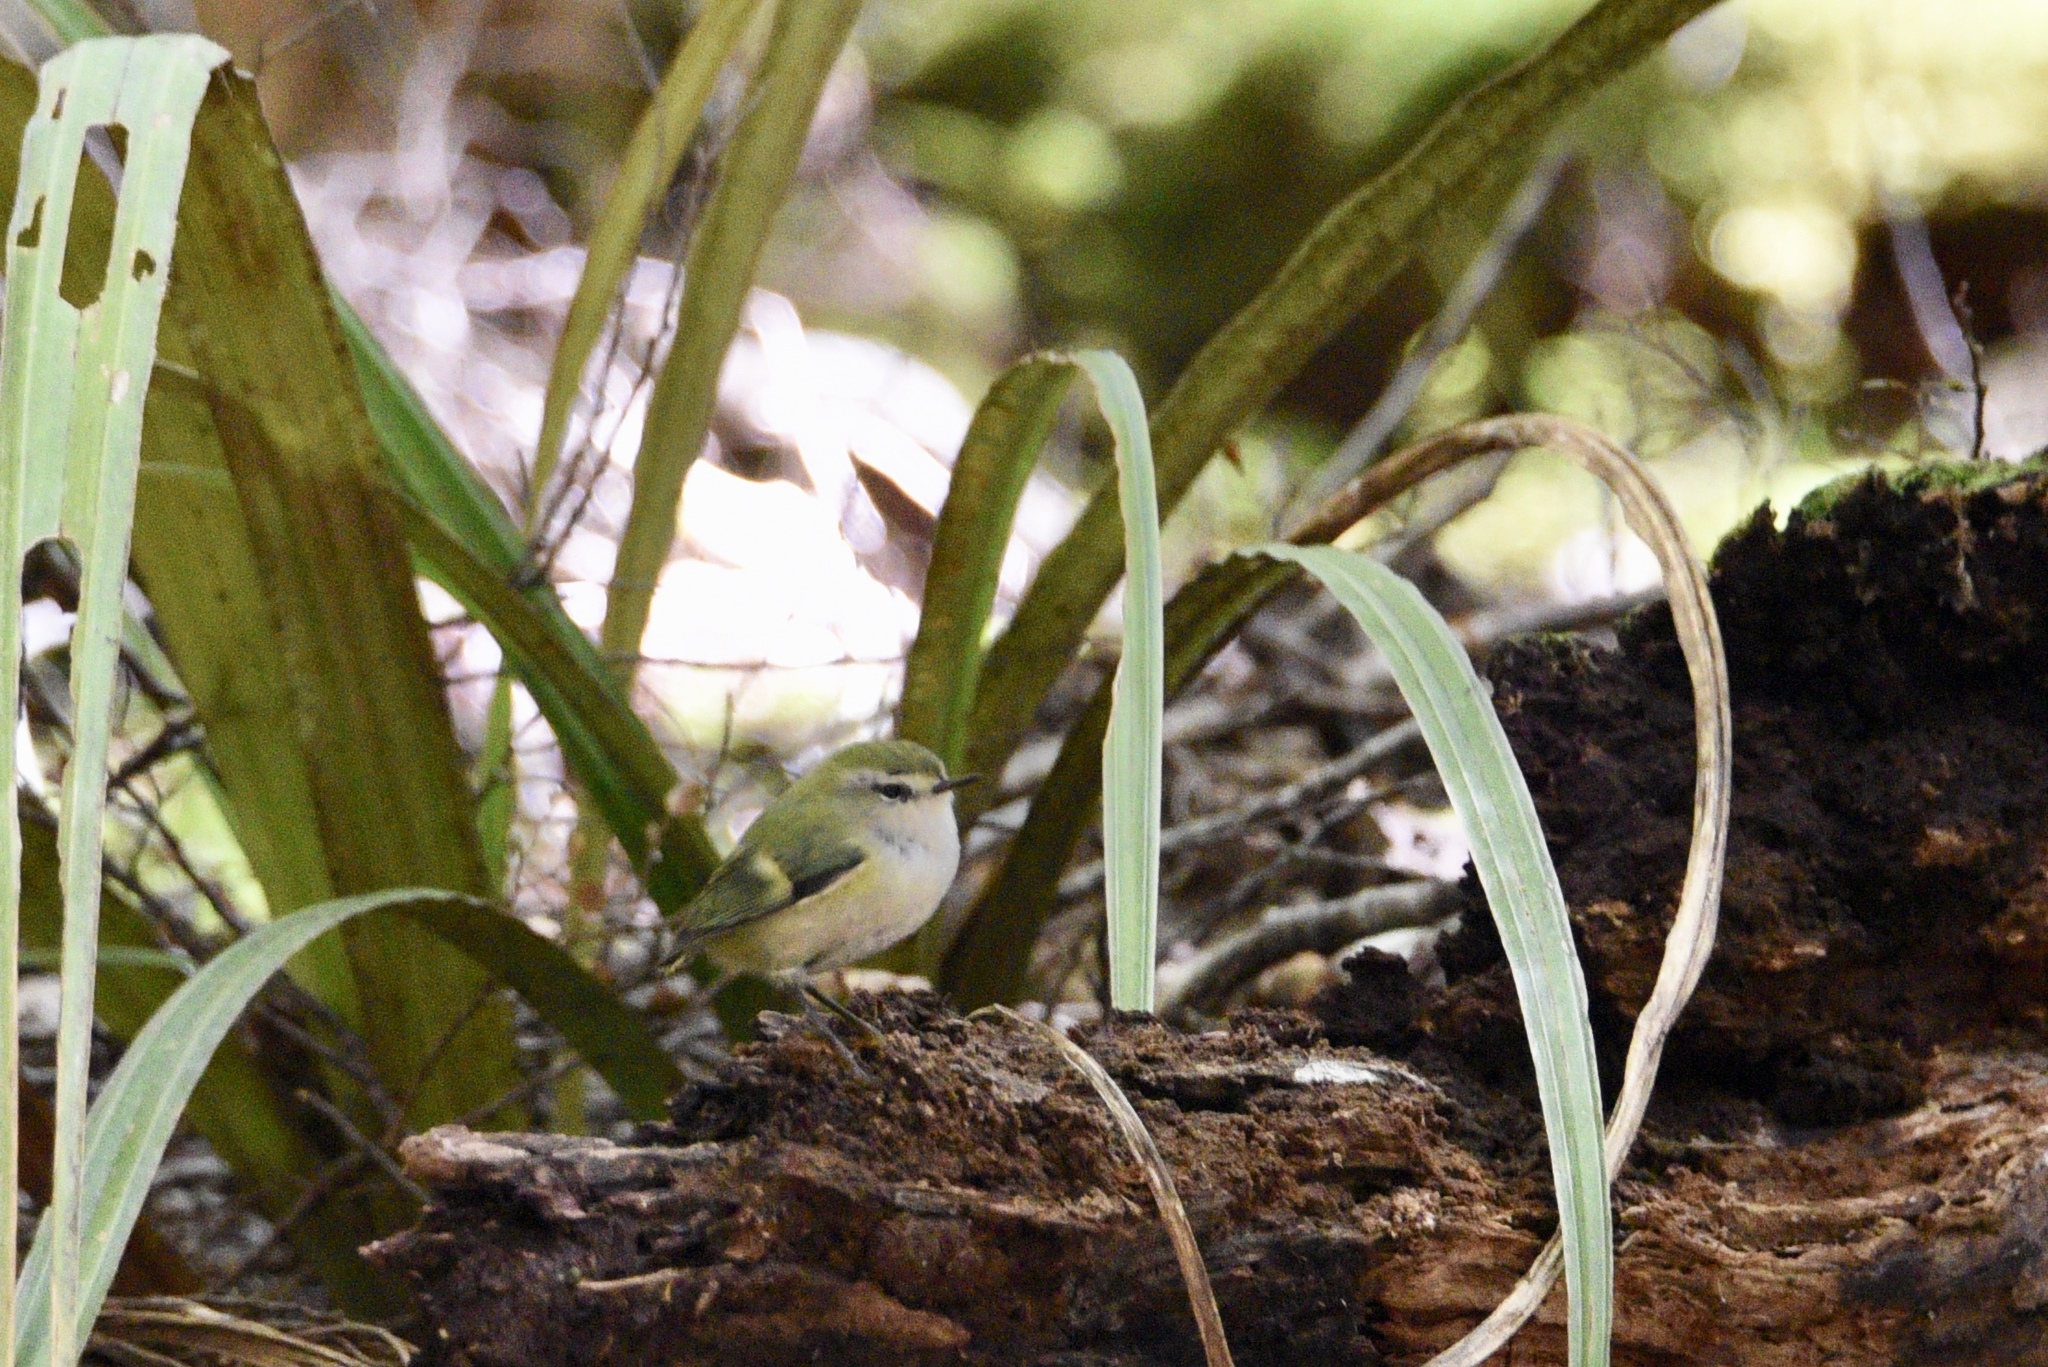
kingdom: Animalia
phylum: Chordata
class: Aves
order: Passeriformes
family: Acanthisittidae
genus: Acanthisitta
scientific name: Acanthisitta chloris
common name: Rifleman
